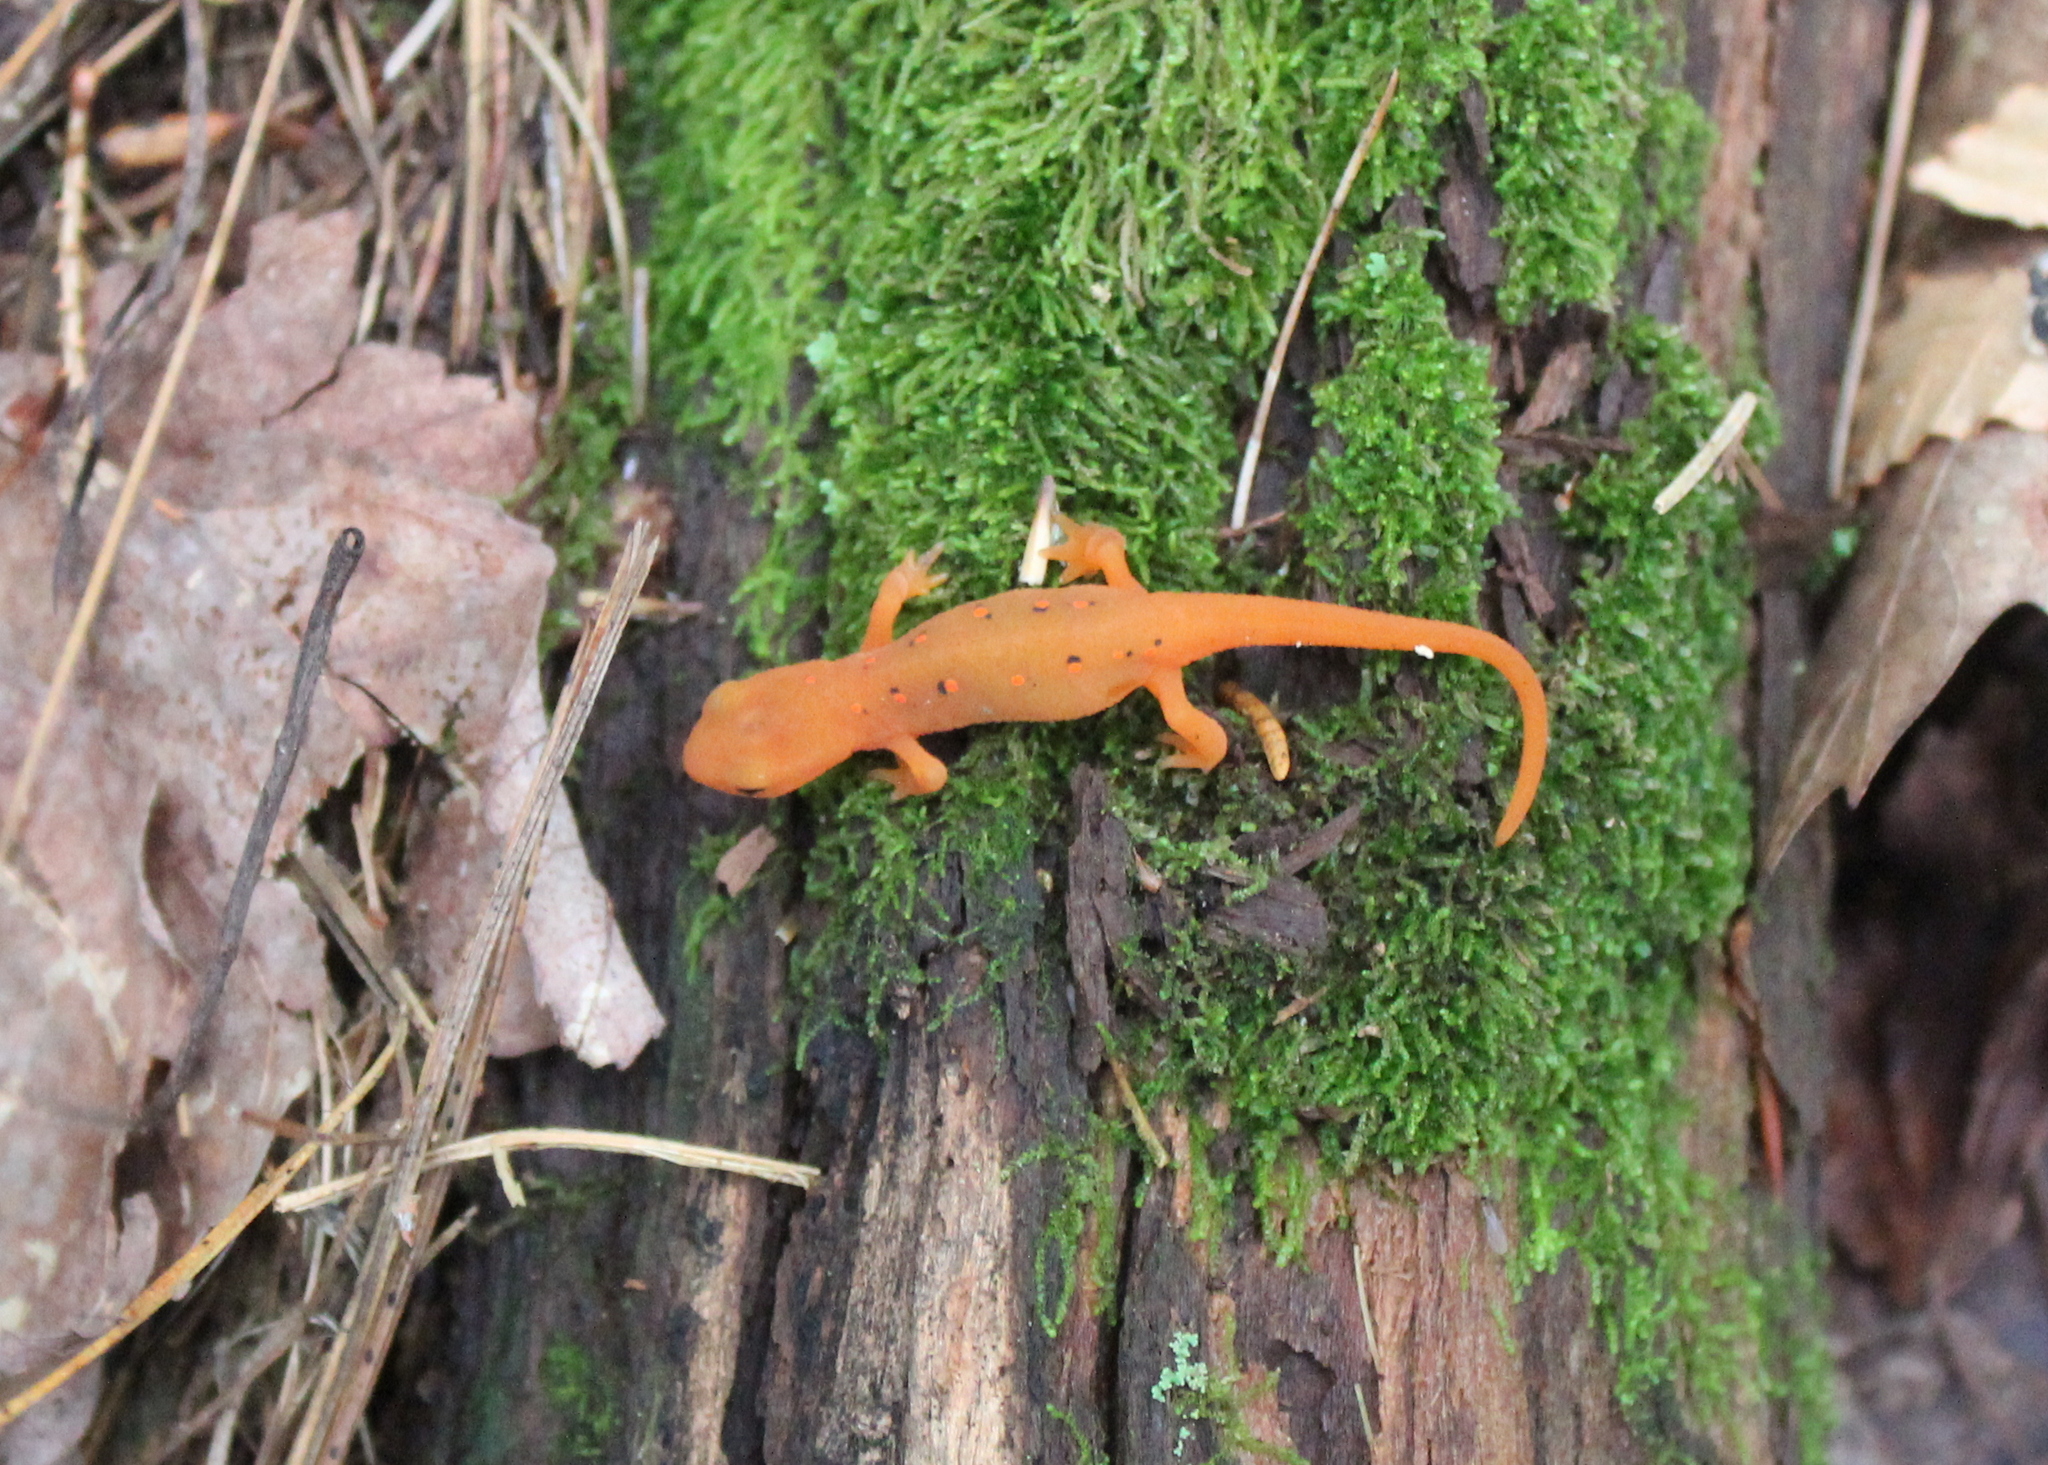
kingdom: Animalia
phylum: Chordata
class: Amphibia
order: Caudata
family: Salamandridae
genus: Notophthalmus
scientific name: Notophthalmus viridescens
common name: Eastern newt
